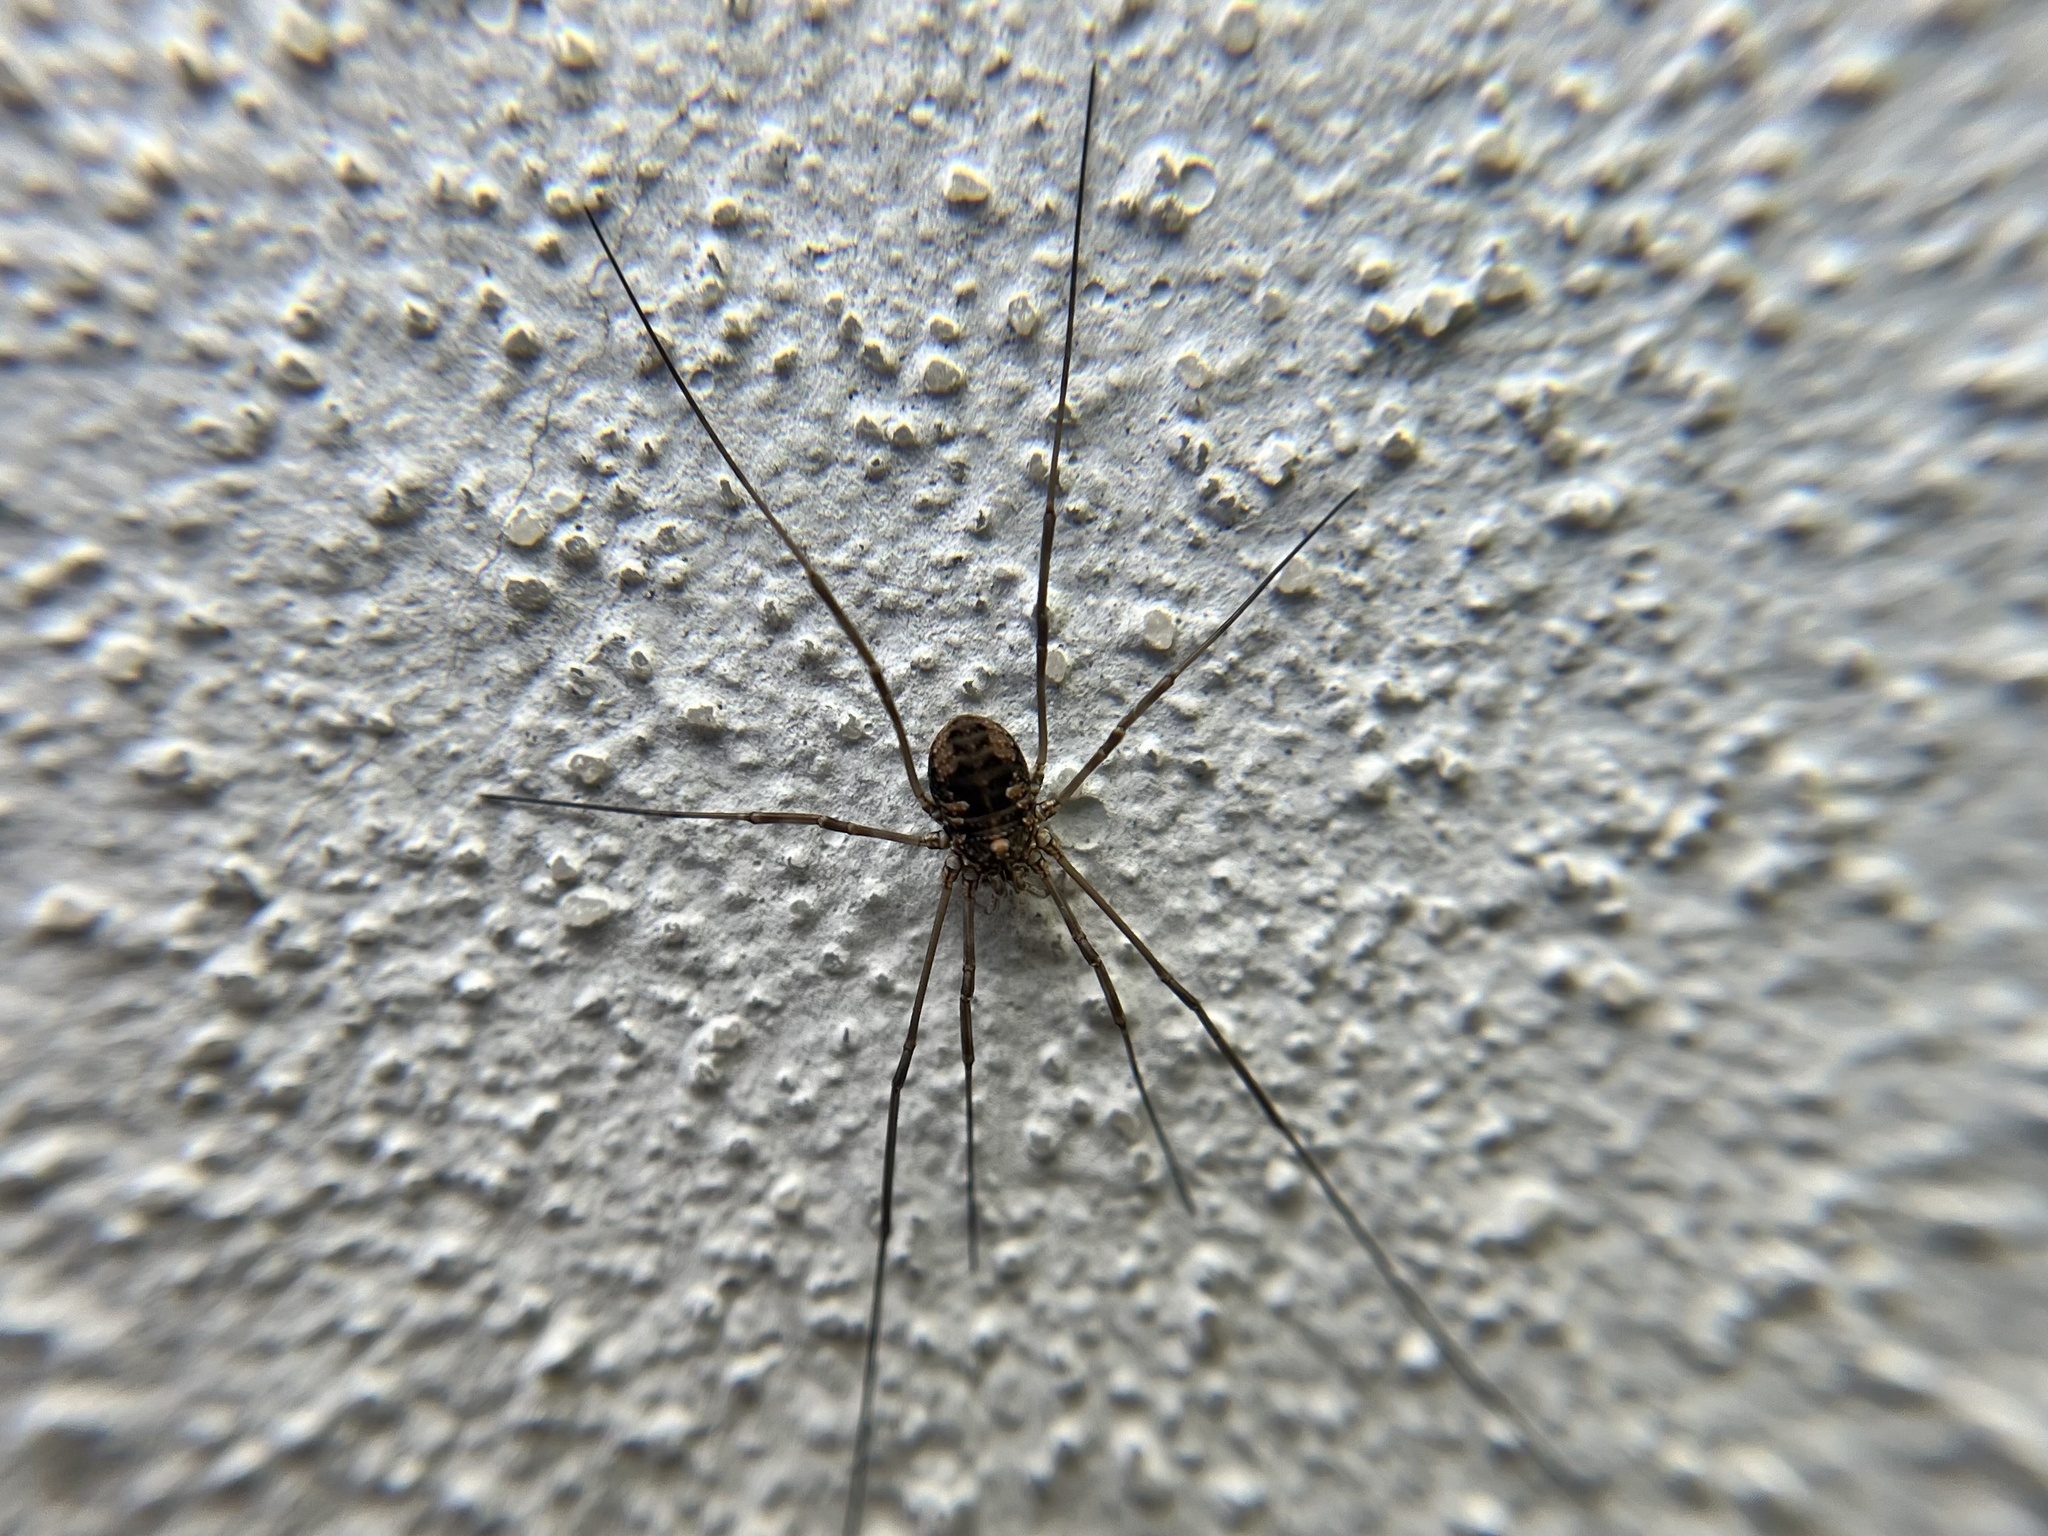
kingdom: Animalia
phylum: Arthropoda
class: Arachnida
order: Opiliones
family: Phalangiidae
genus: Phalangium
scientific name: Phalangium opilio
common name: Daddy longleg
